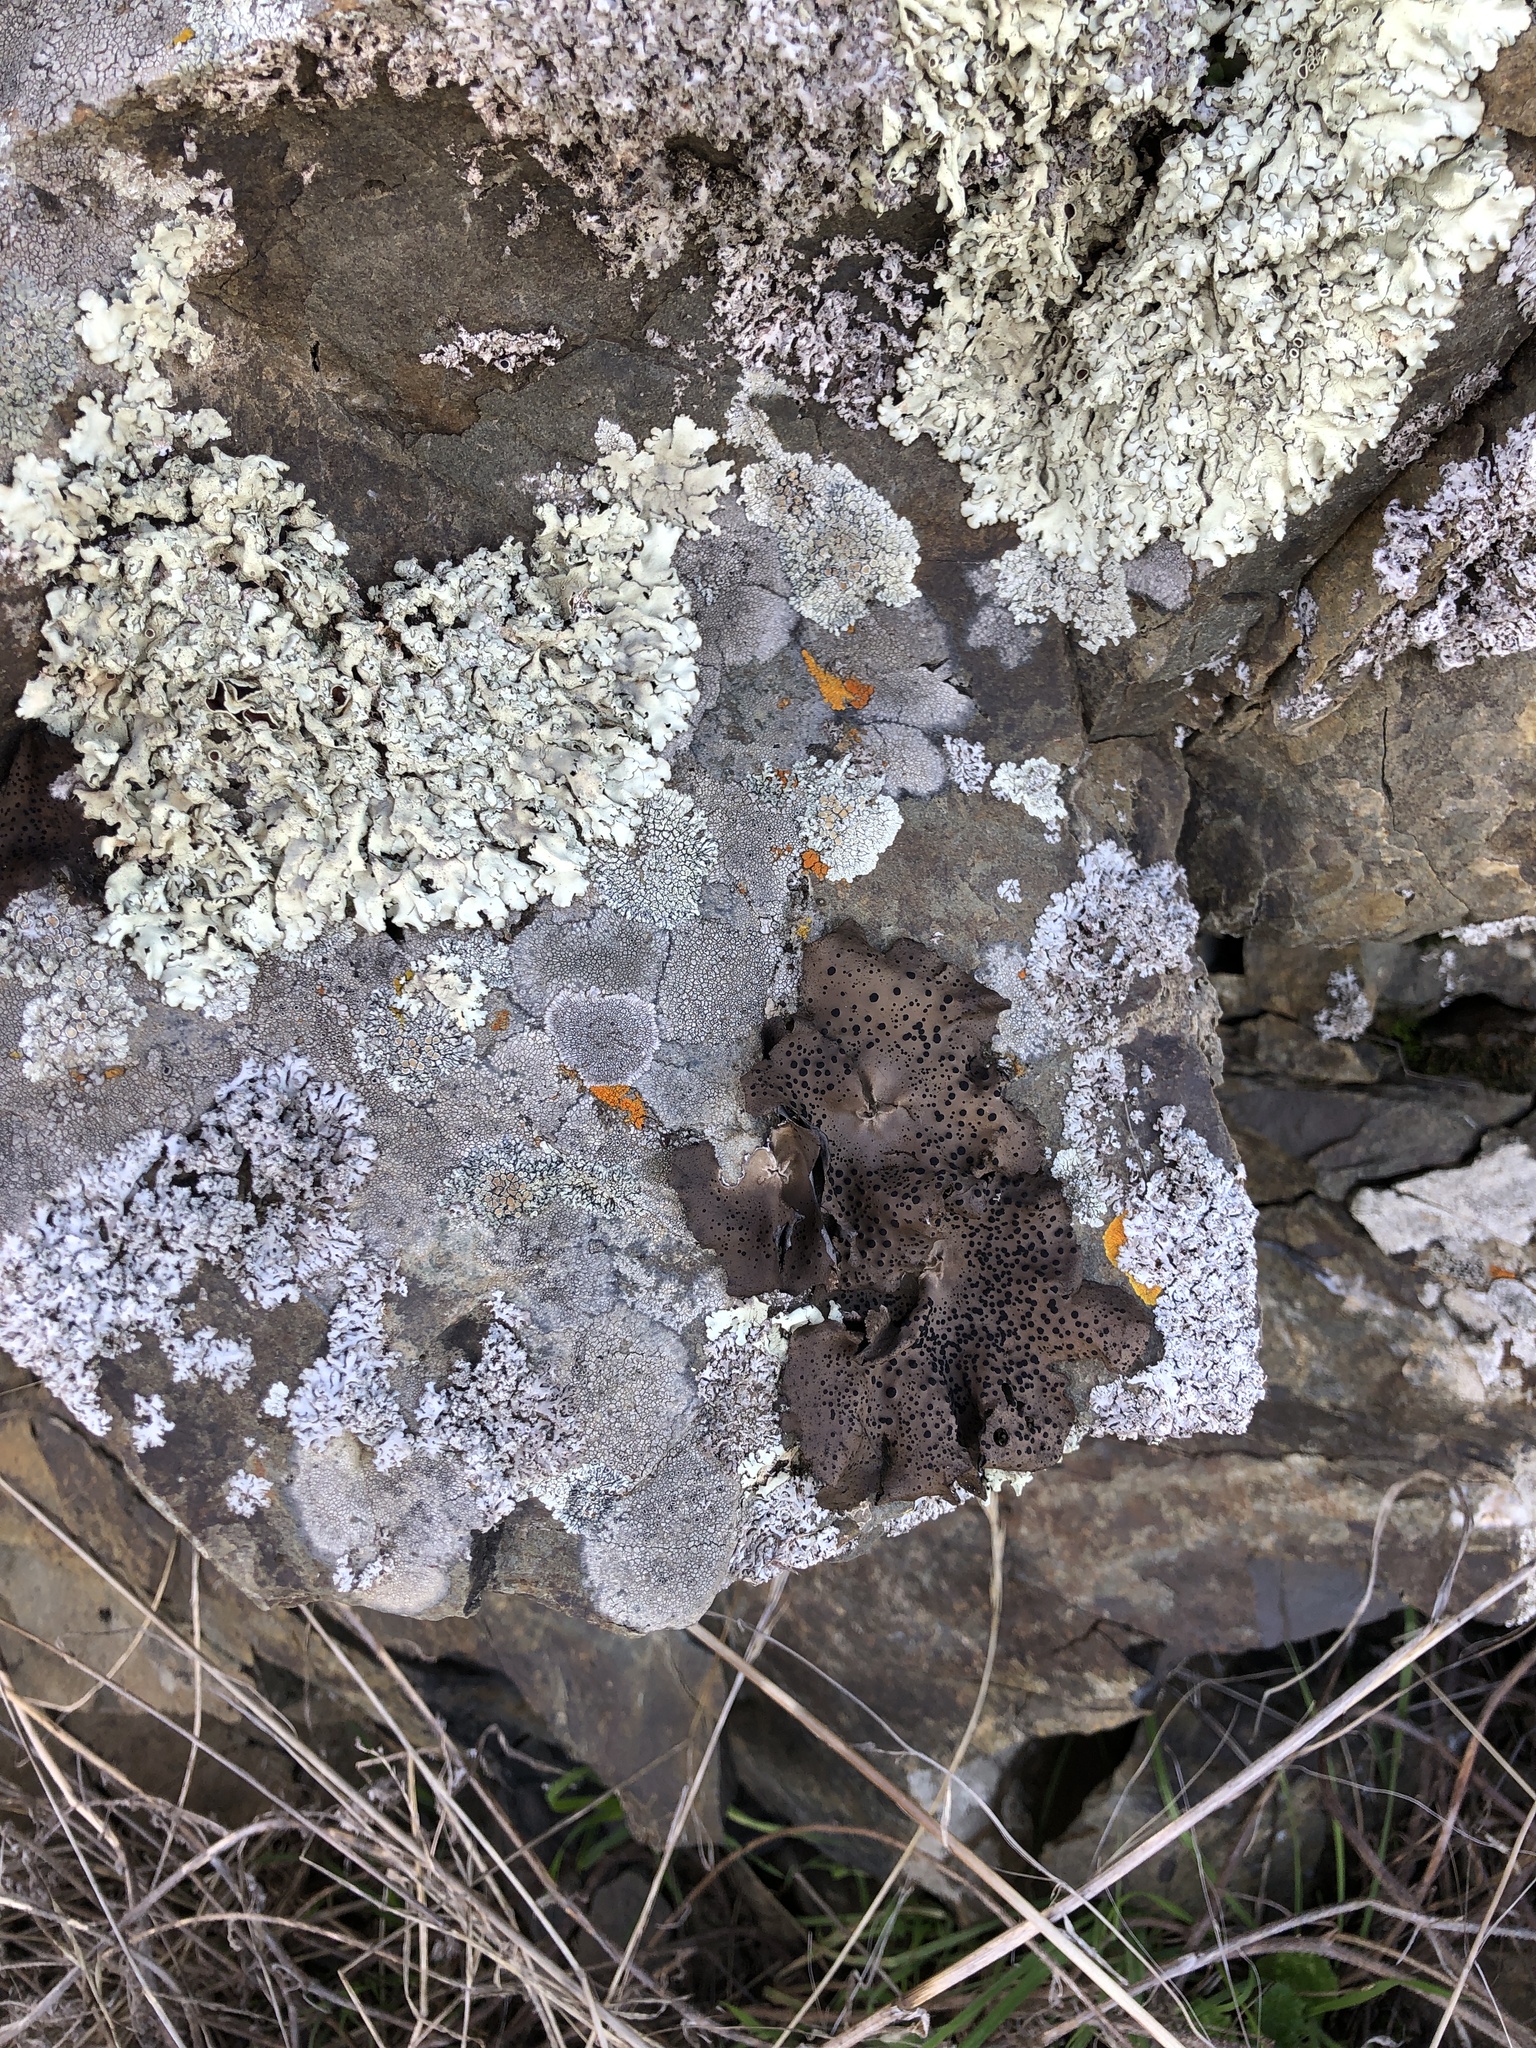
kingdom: Fungi
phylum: Ascomycota
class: Lecanoromycetes
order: Umbilicariales
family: Umbilicariaceae
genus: Umbilicaria
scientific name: Umbilicaria phaea
